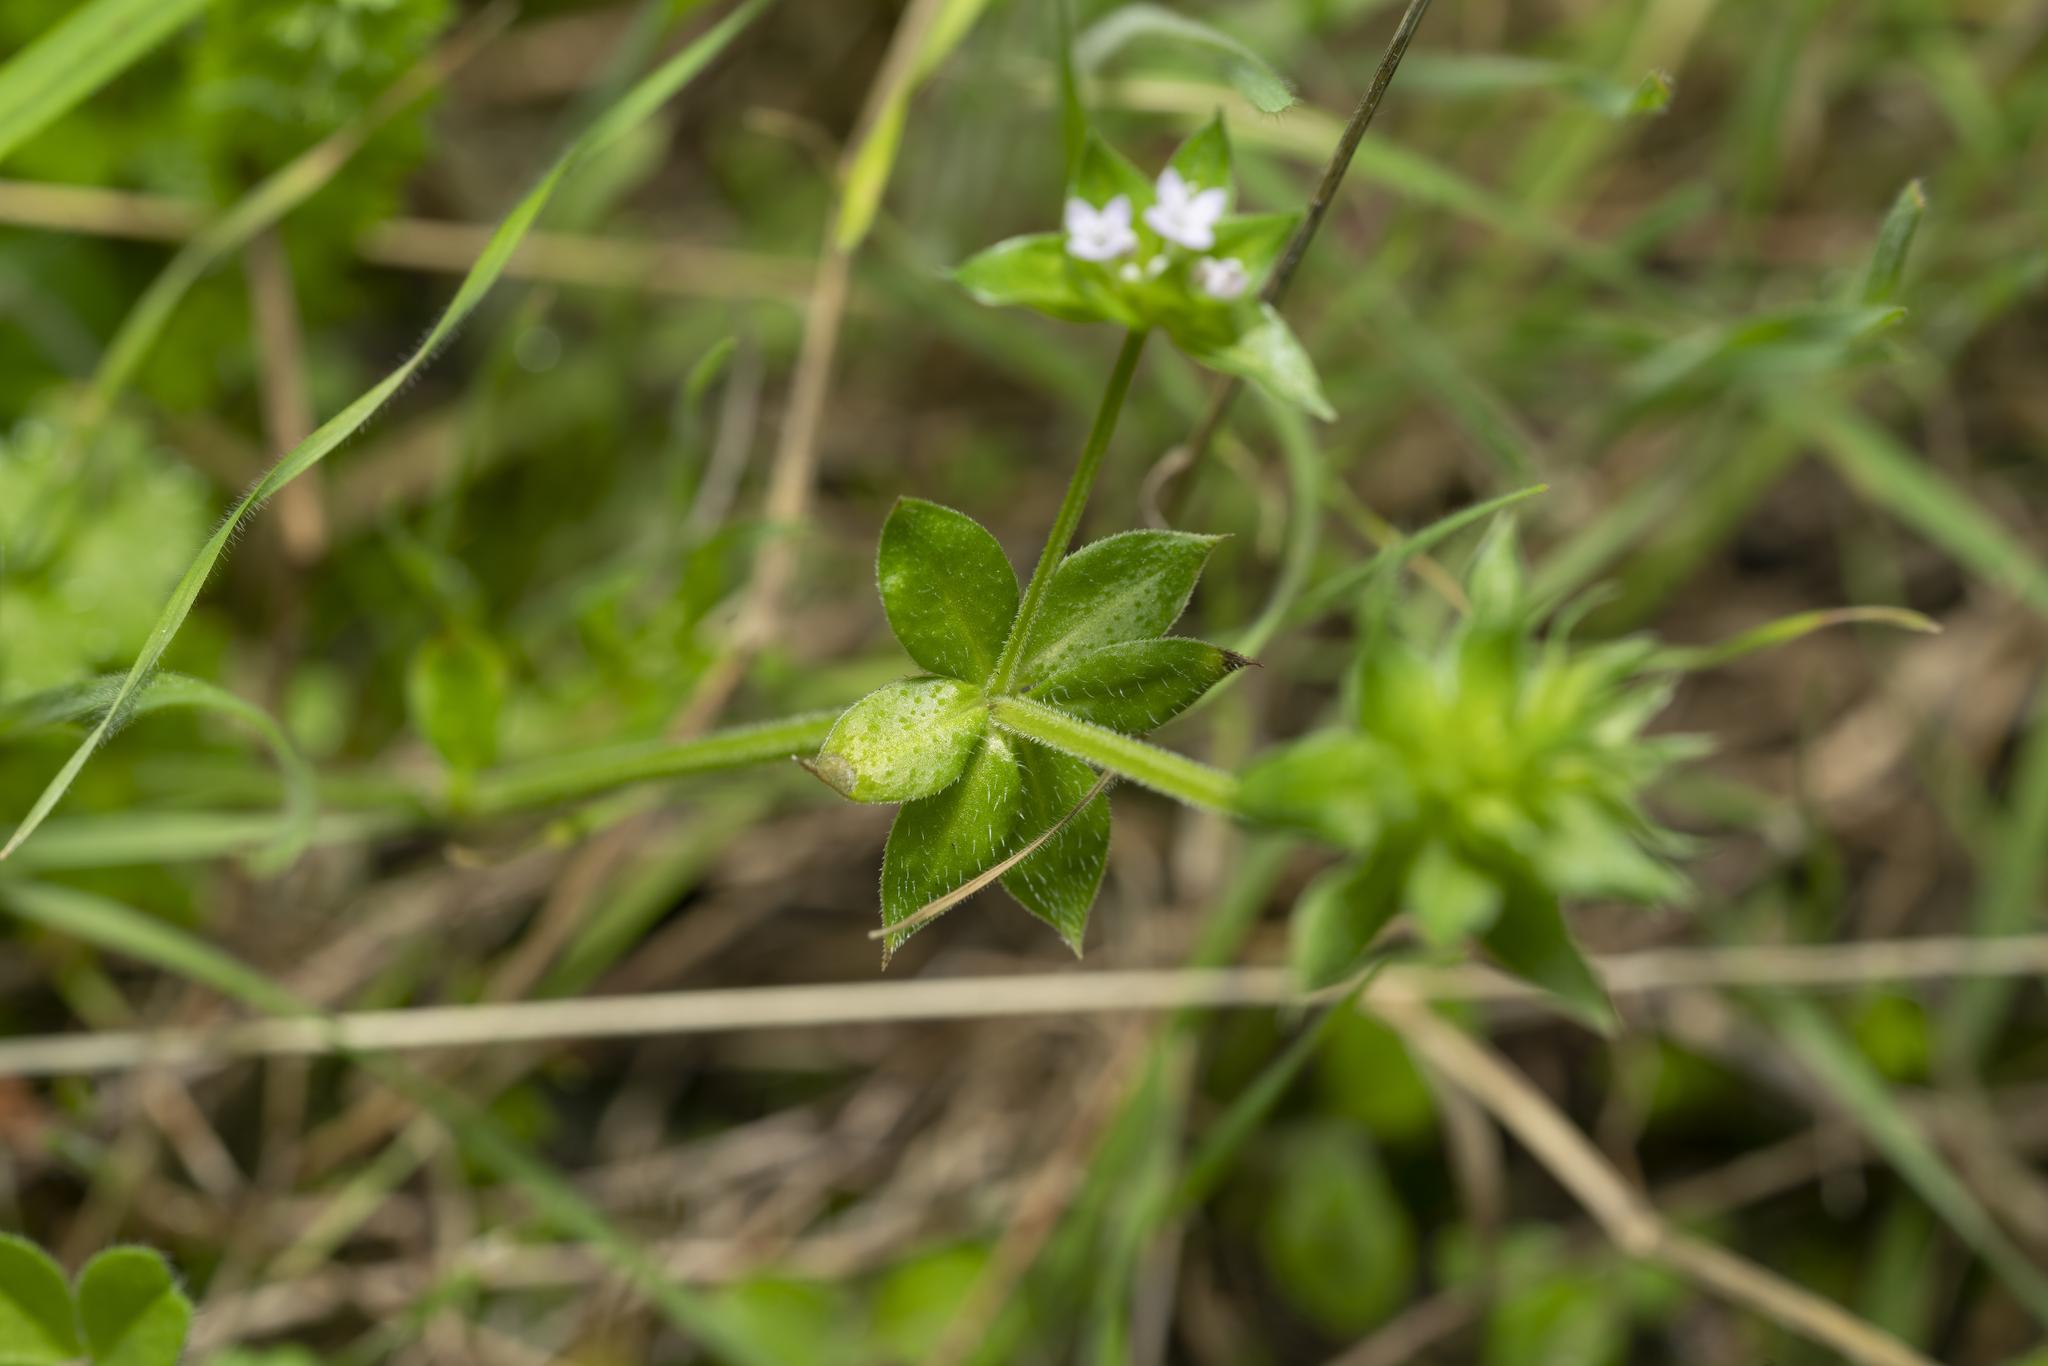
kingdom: Plantae
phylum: Tracheophyta
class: Magnoliopsida
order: Gentianales
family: Rubiaceae
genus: Sherardia
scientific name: Sherardia arvensis
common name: Field madder
